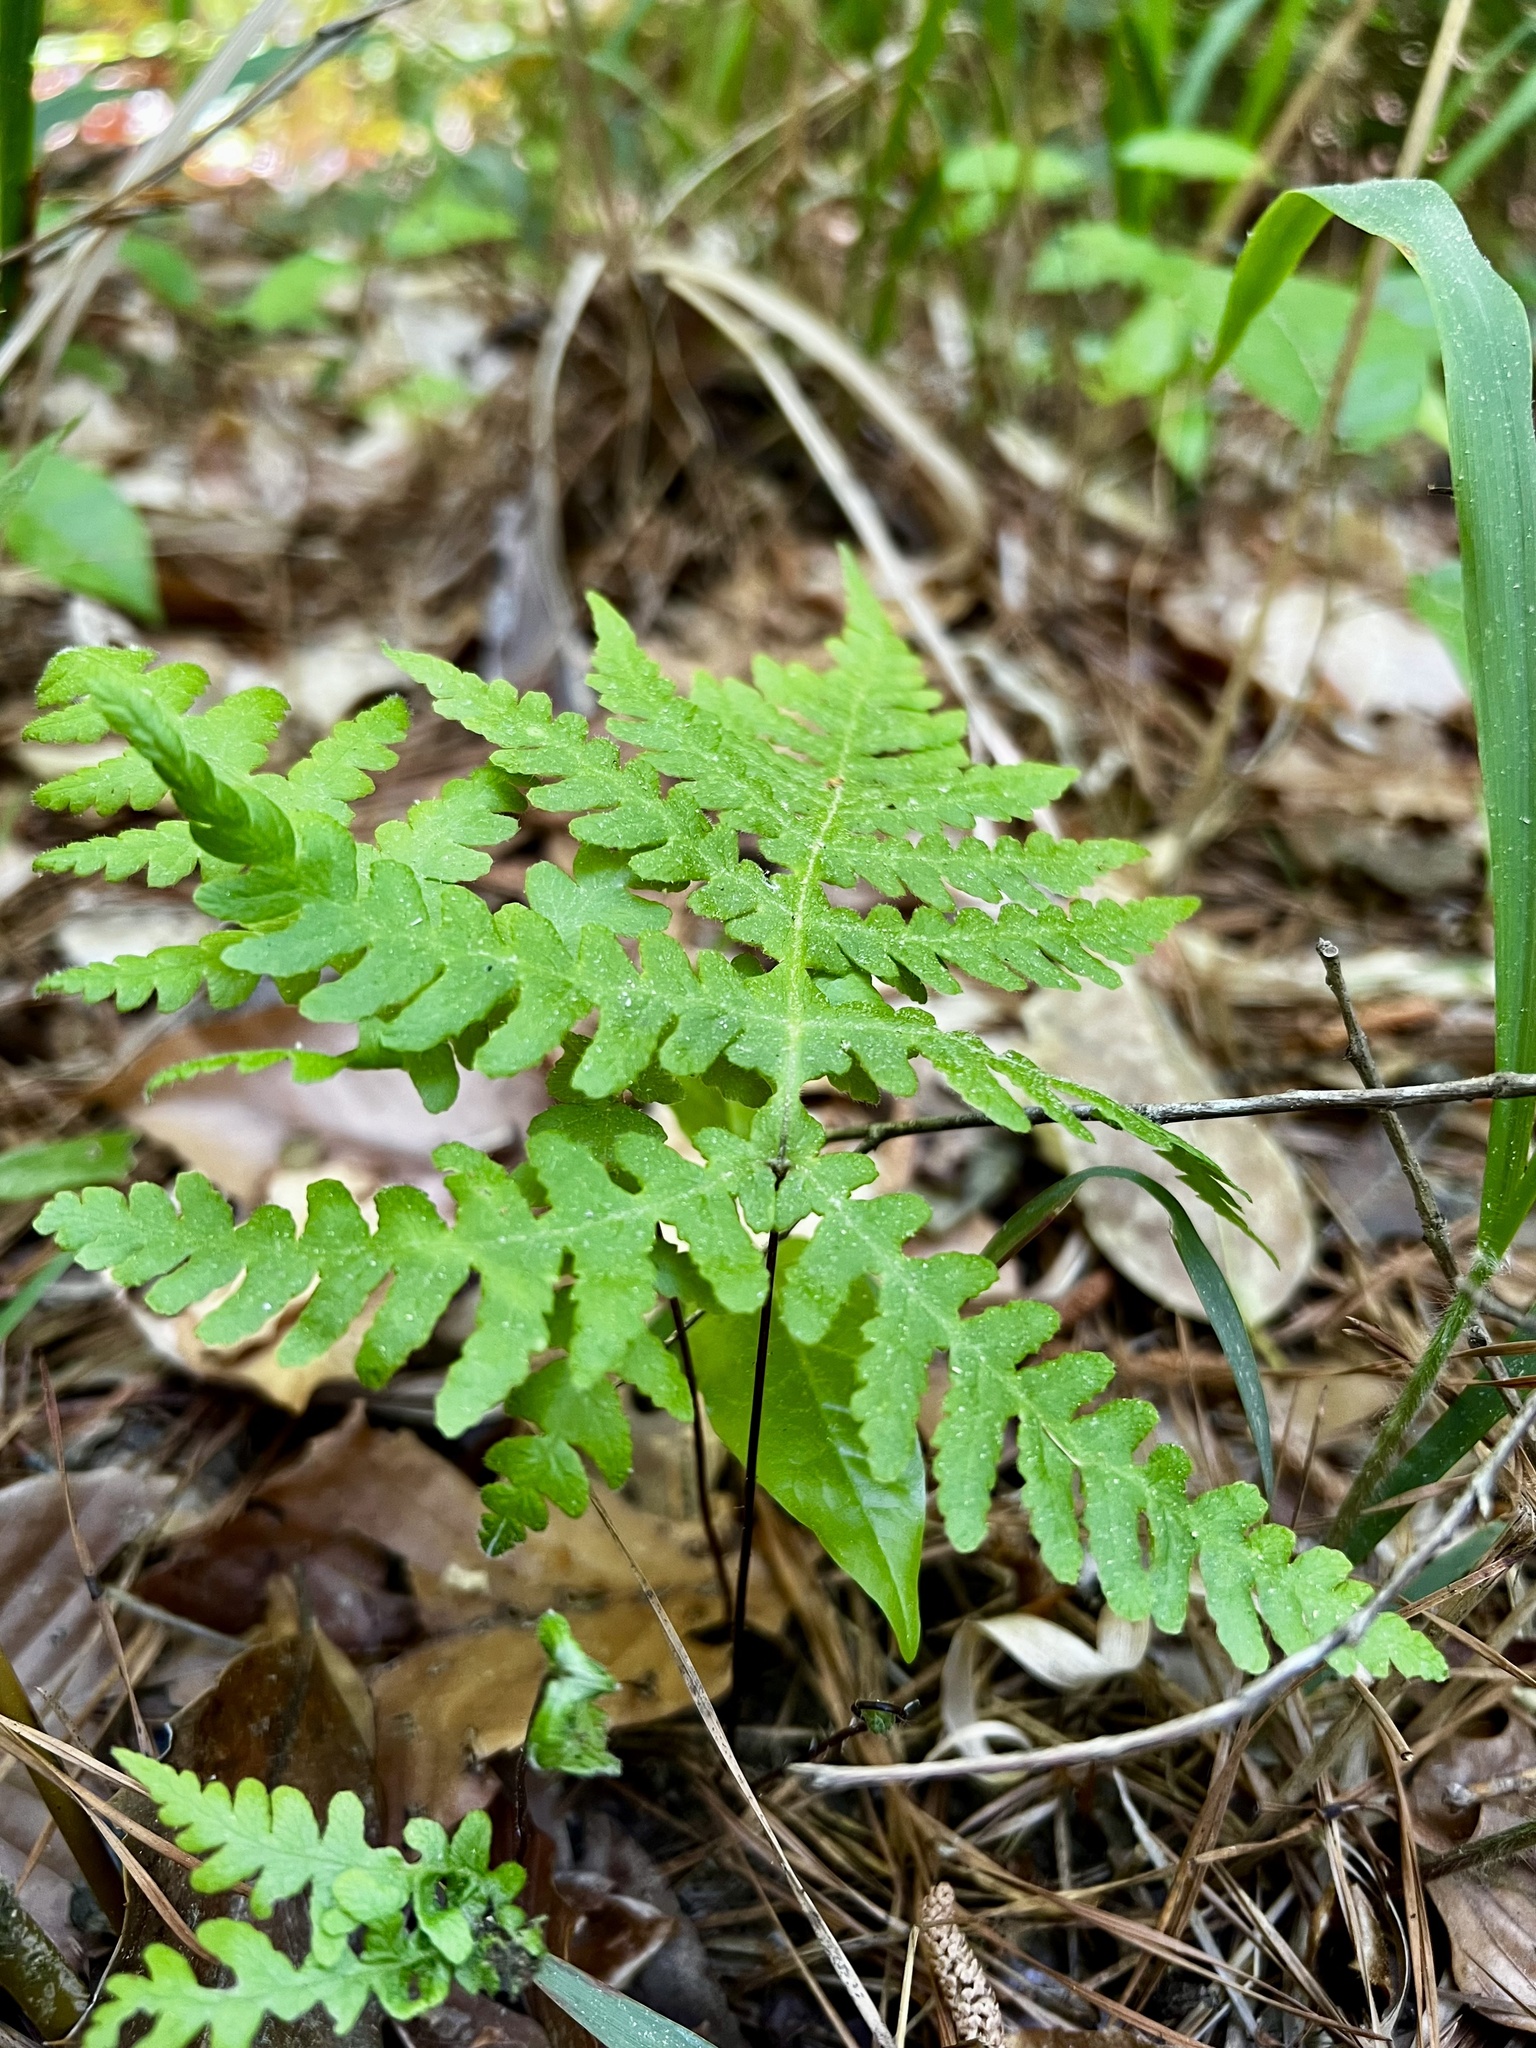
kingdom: Plantae
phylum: Tracheophyta
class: Polypodiopsida
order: Polypodiales
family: Thelypteridaceae
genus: Phegopteris
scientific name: Phegopteris hexagonoptera
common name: Broad beech fern
